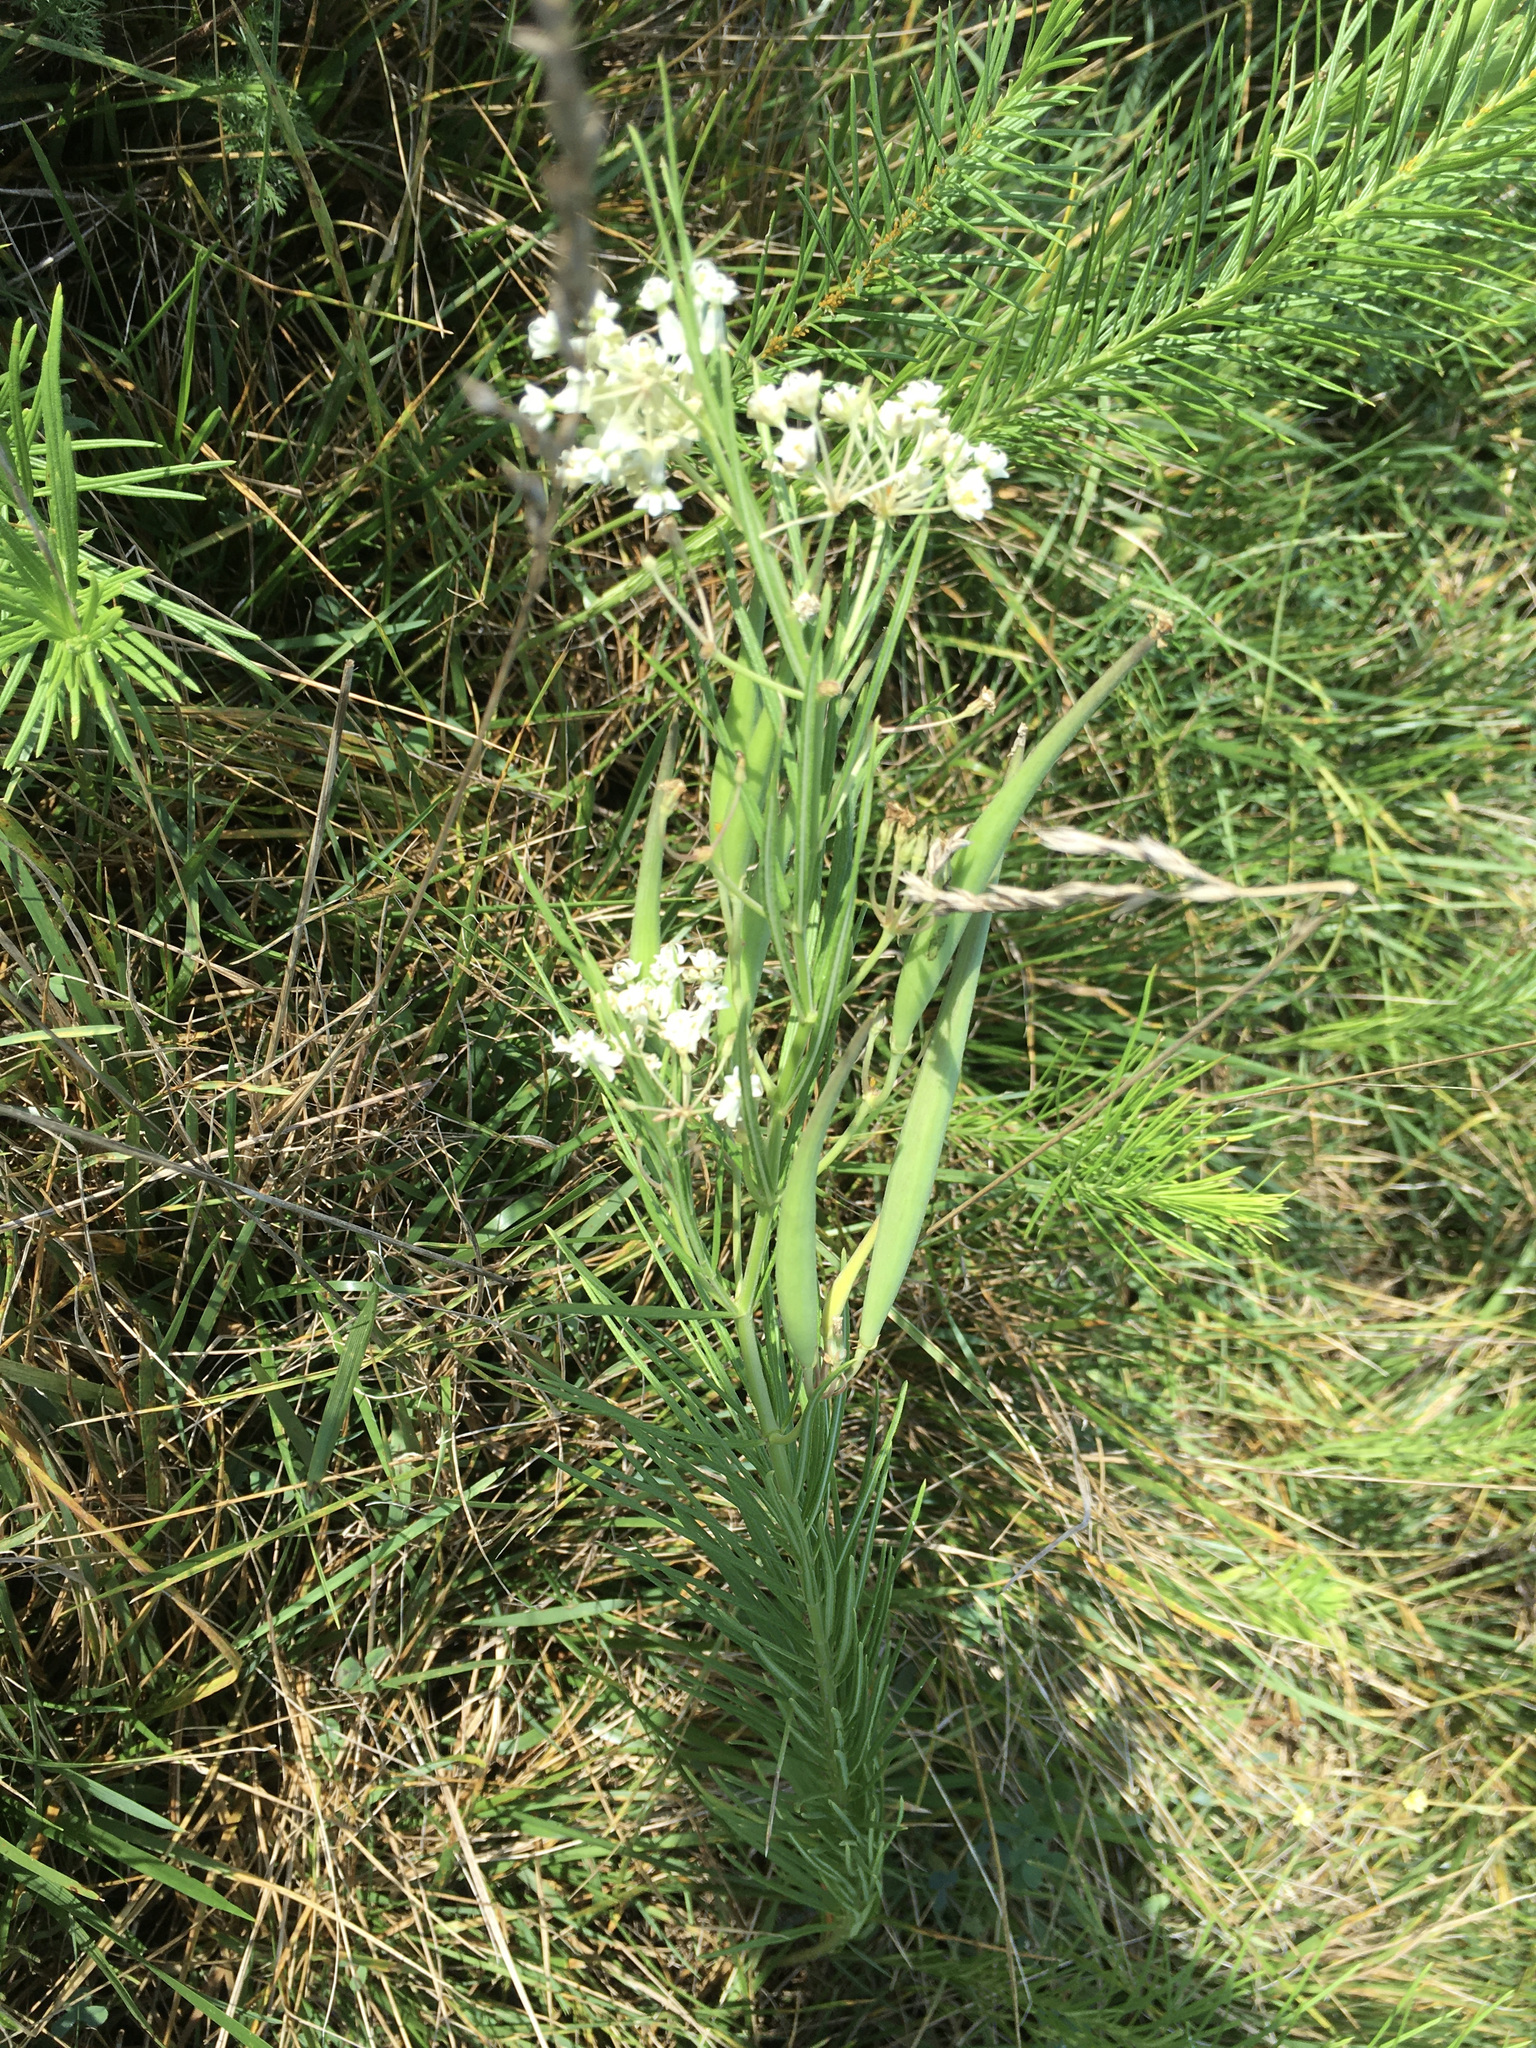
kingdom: Plantae
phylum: Tracheophyta
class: Magnoliopsida
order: Gentianales
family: Apocynaceae
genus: Asclepias
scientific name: Asclepias verticillata
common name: Eastern whorled milkweed
